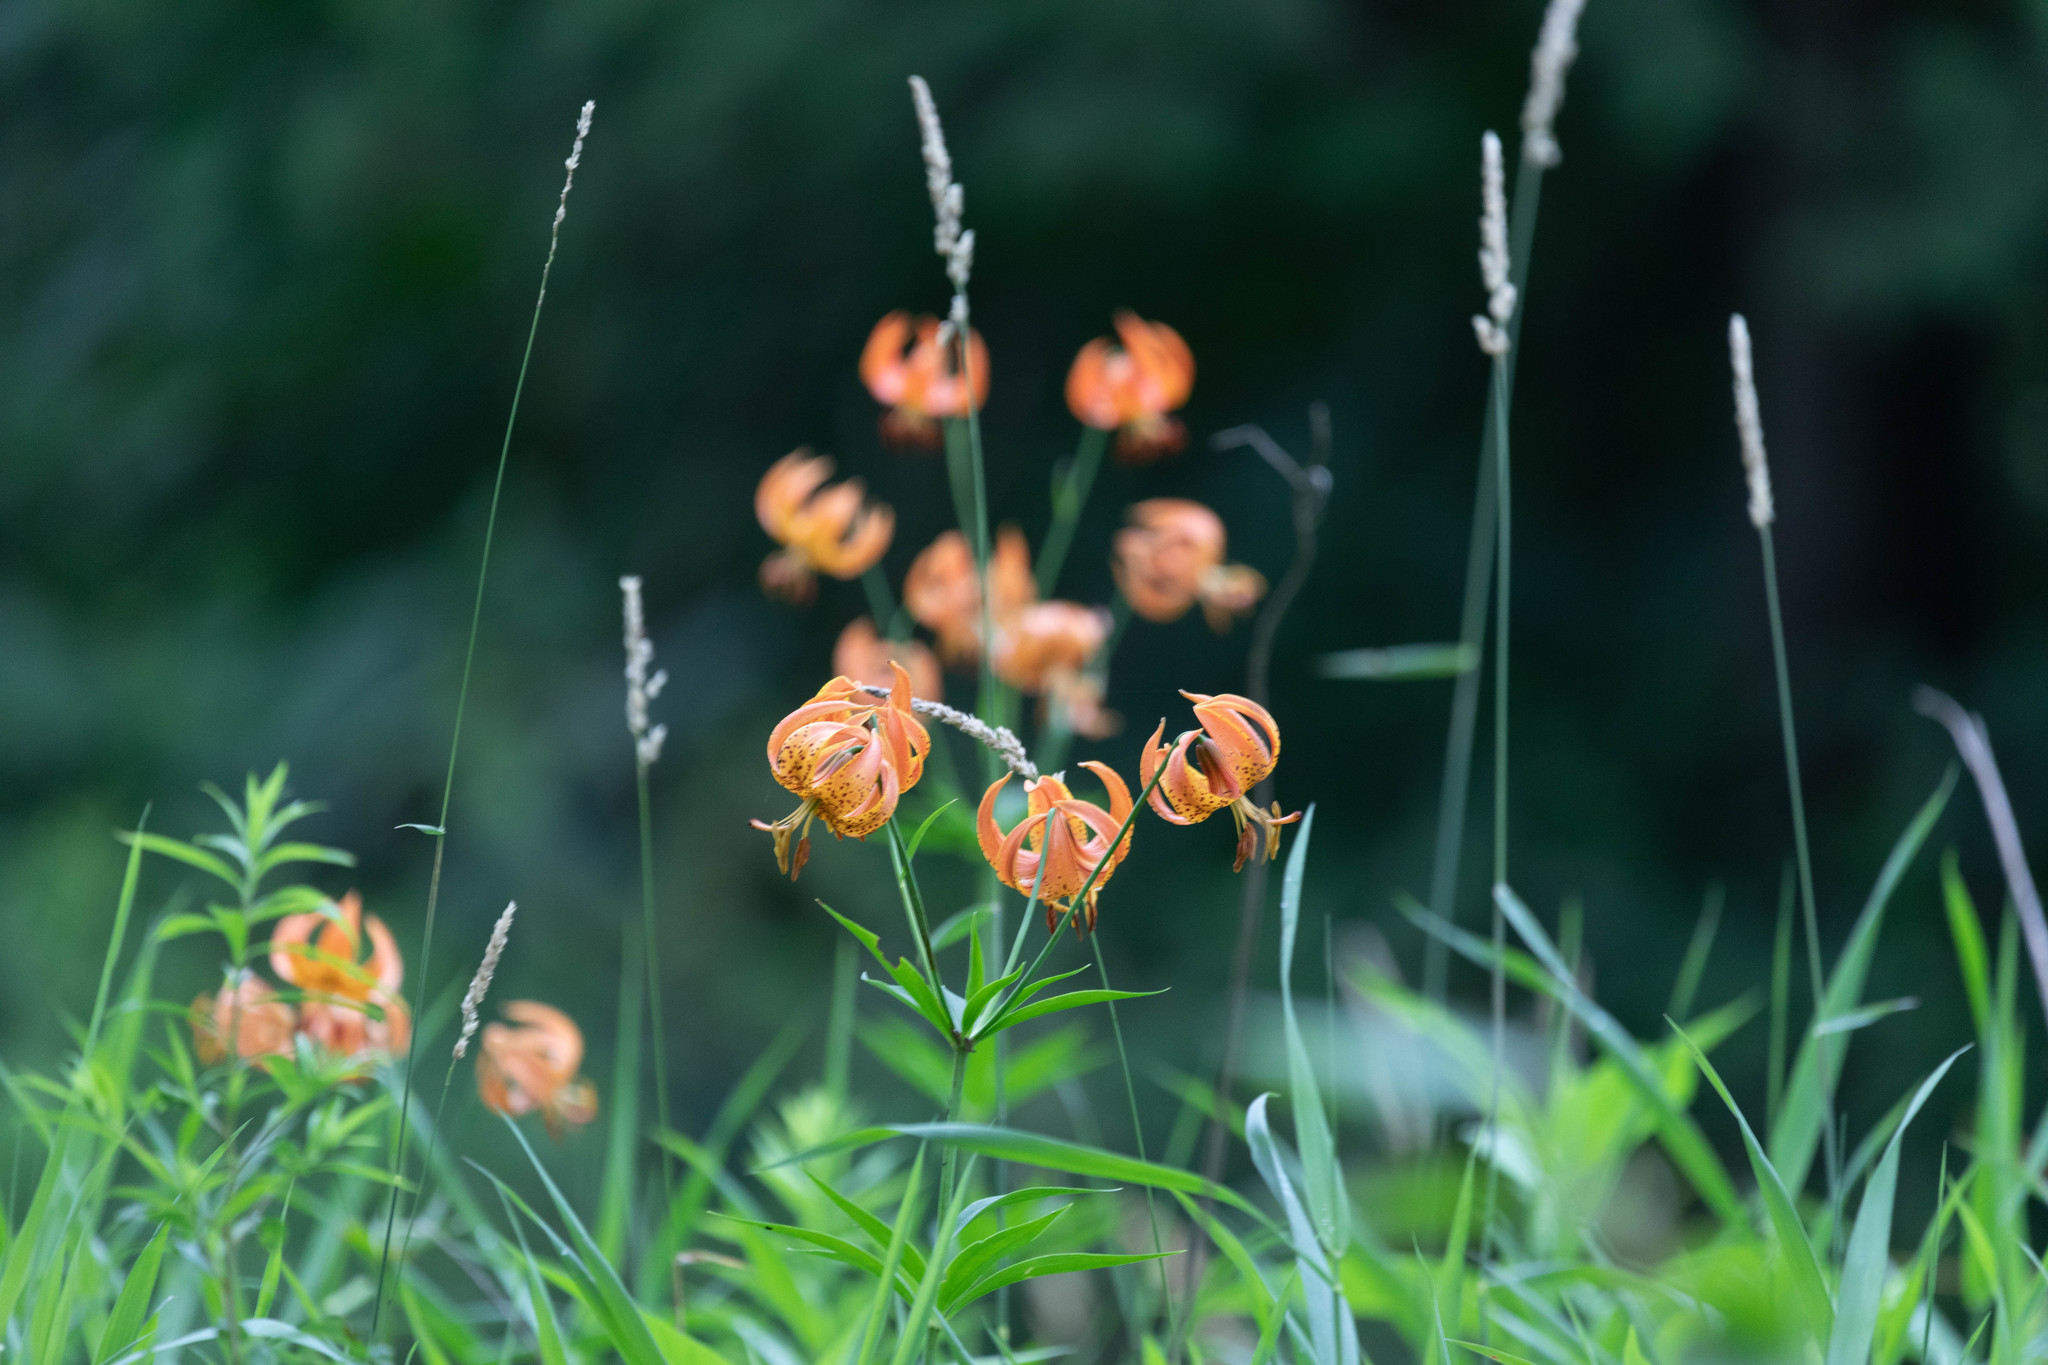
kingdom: Plantae
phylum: Tracheophyta
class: Liliopsida
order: Liliales
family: Liliaceae
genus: Lilium
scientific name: Lilium michiganense
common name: Michigan lily
